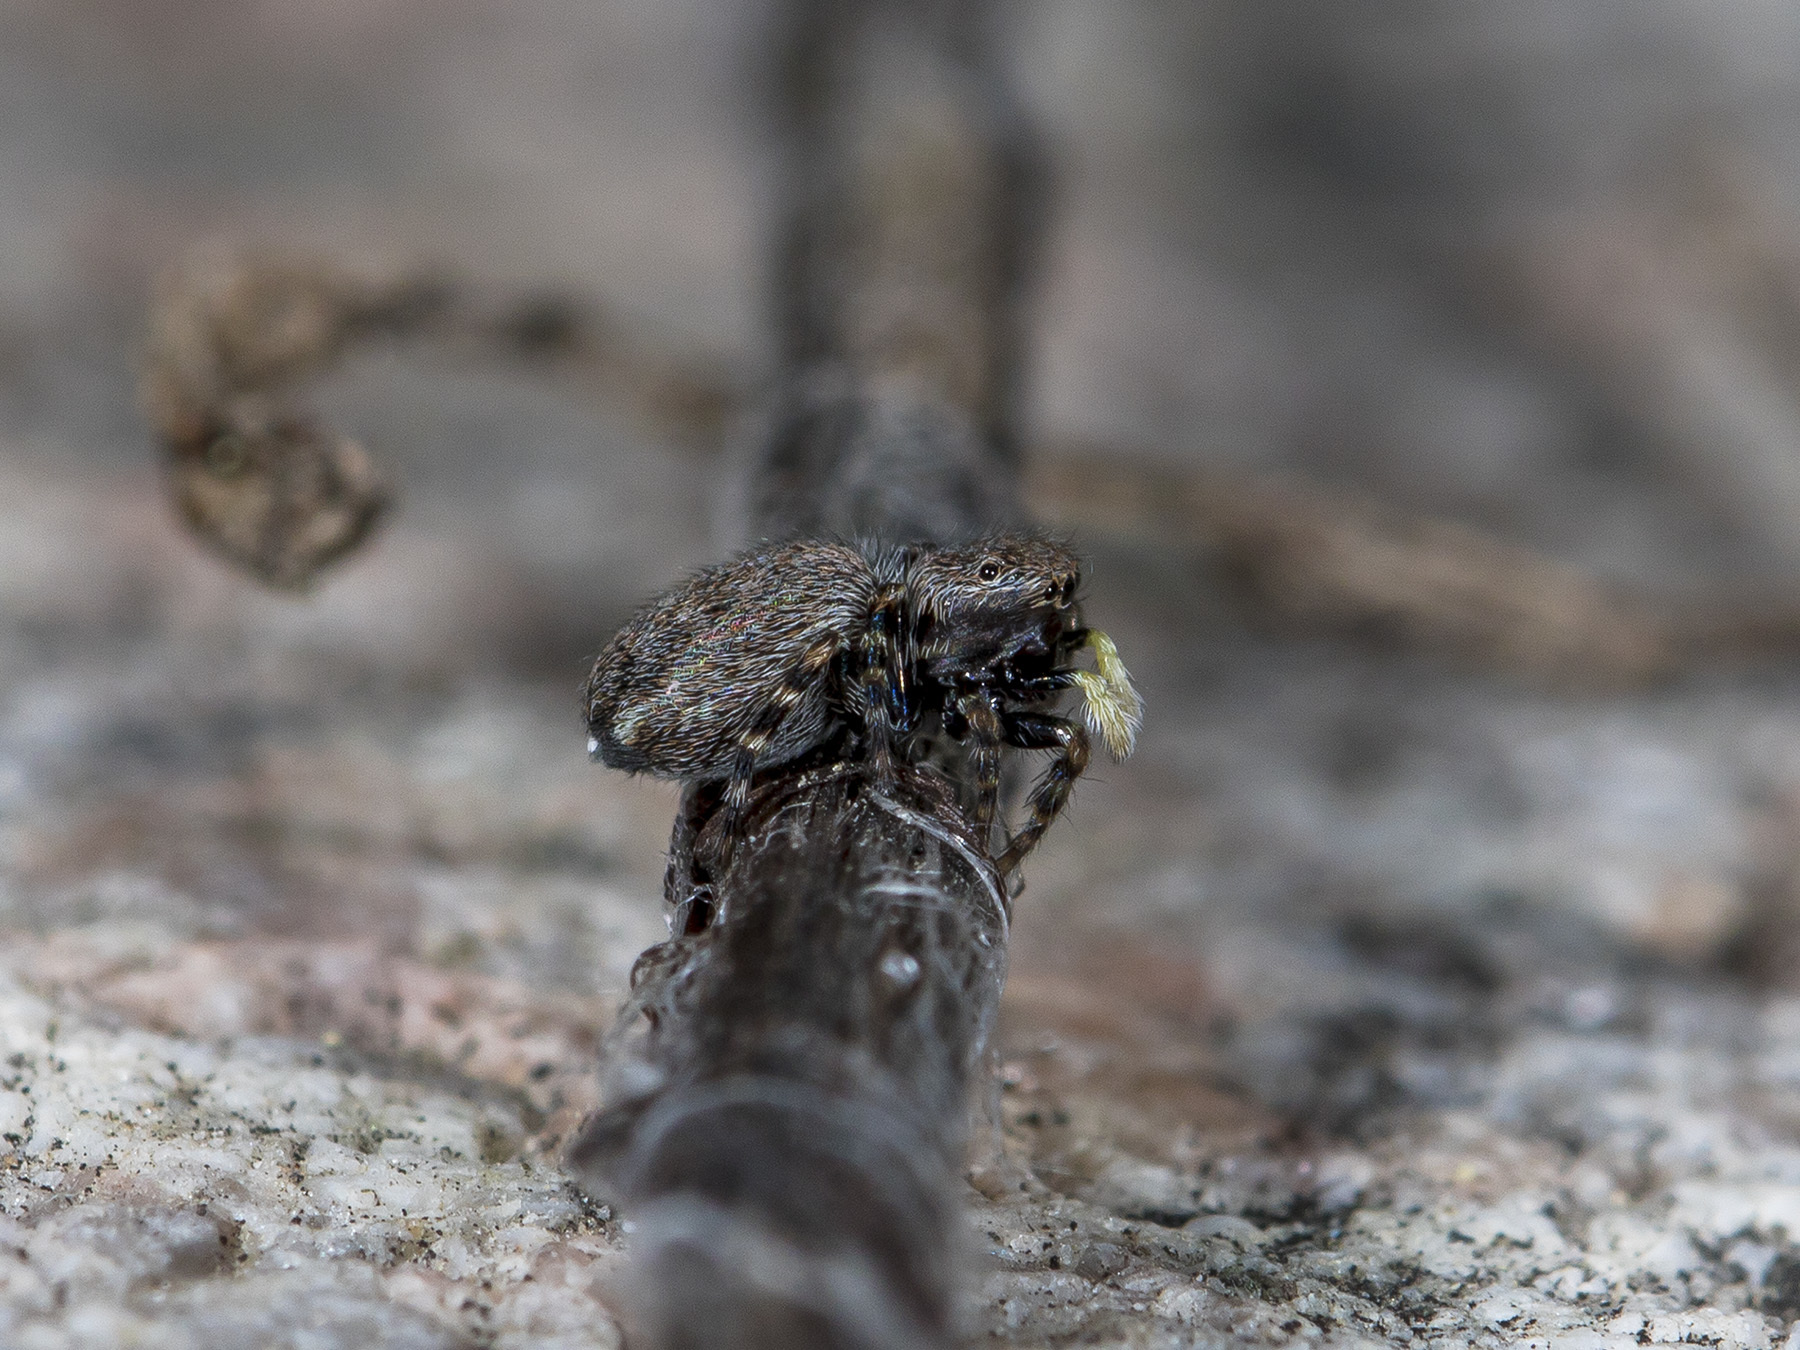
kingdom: Animalia
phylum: Arthropoda
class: Arachnida
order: Araneae
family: Salticidae
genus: Talavera
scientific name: Talavera petrensis
